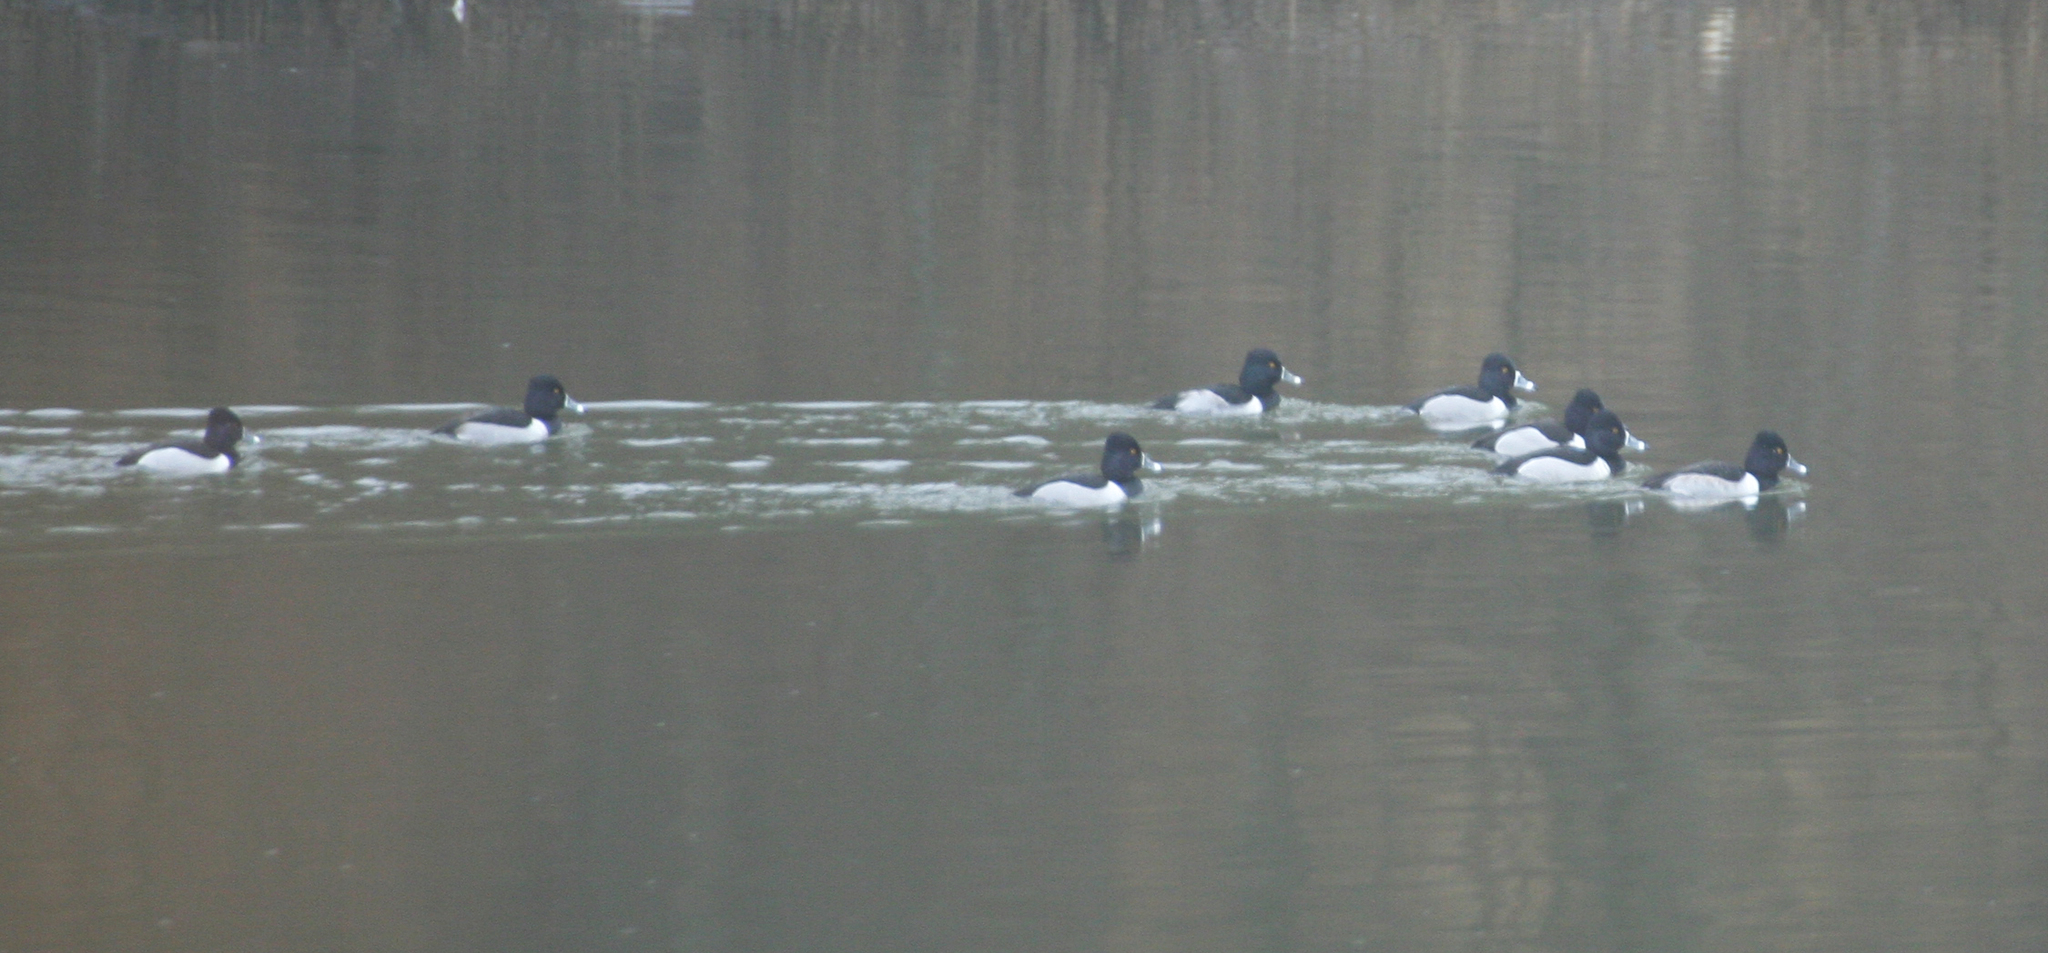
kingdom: Animalia
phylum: Chordata
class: Aves
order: Anseriformes
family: Anatidae
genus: Aythya
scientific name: Aythya collaris
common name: Ring-necked duck
